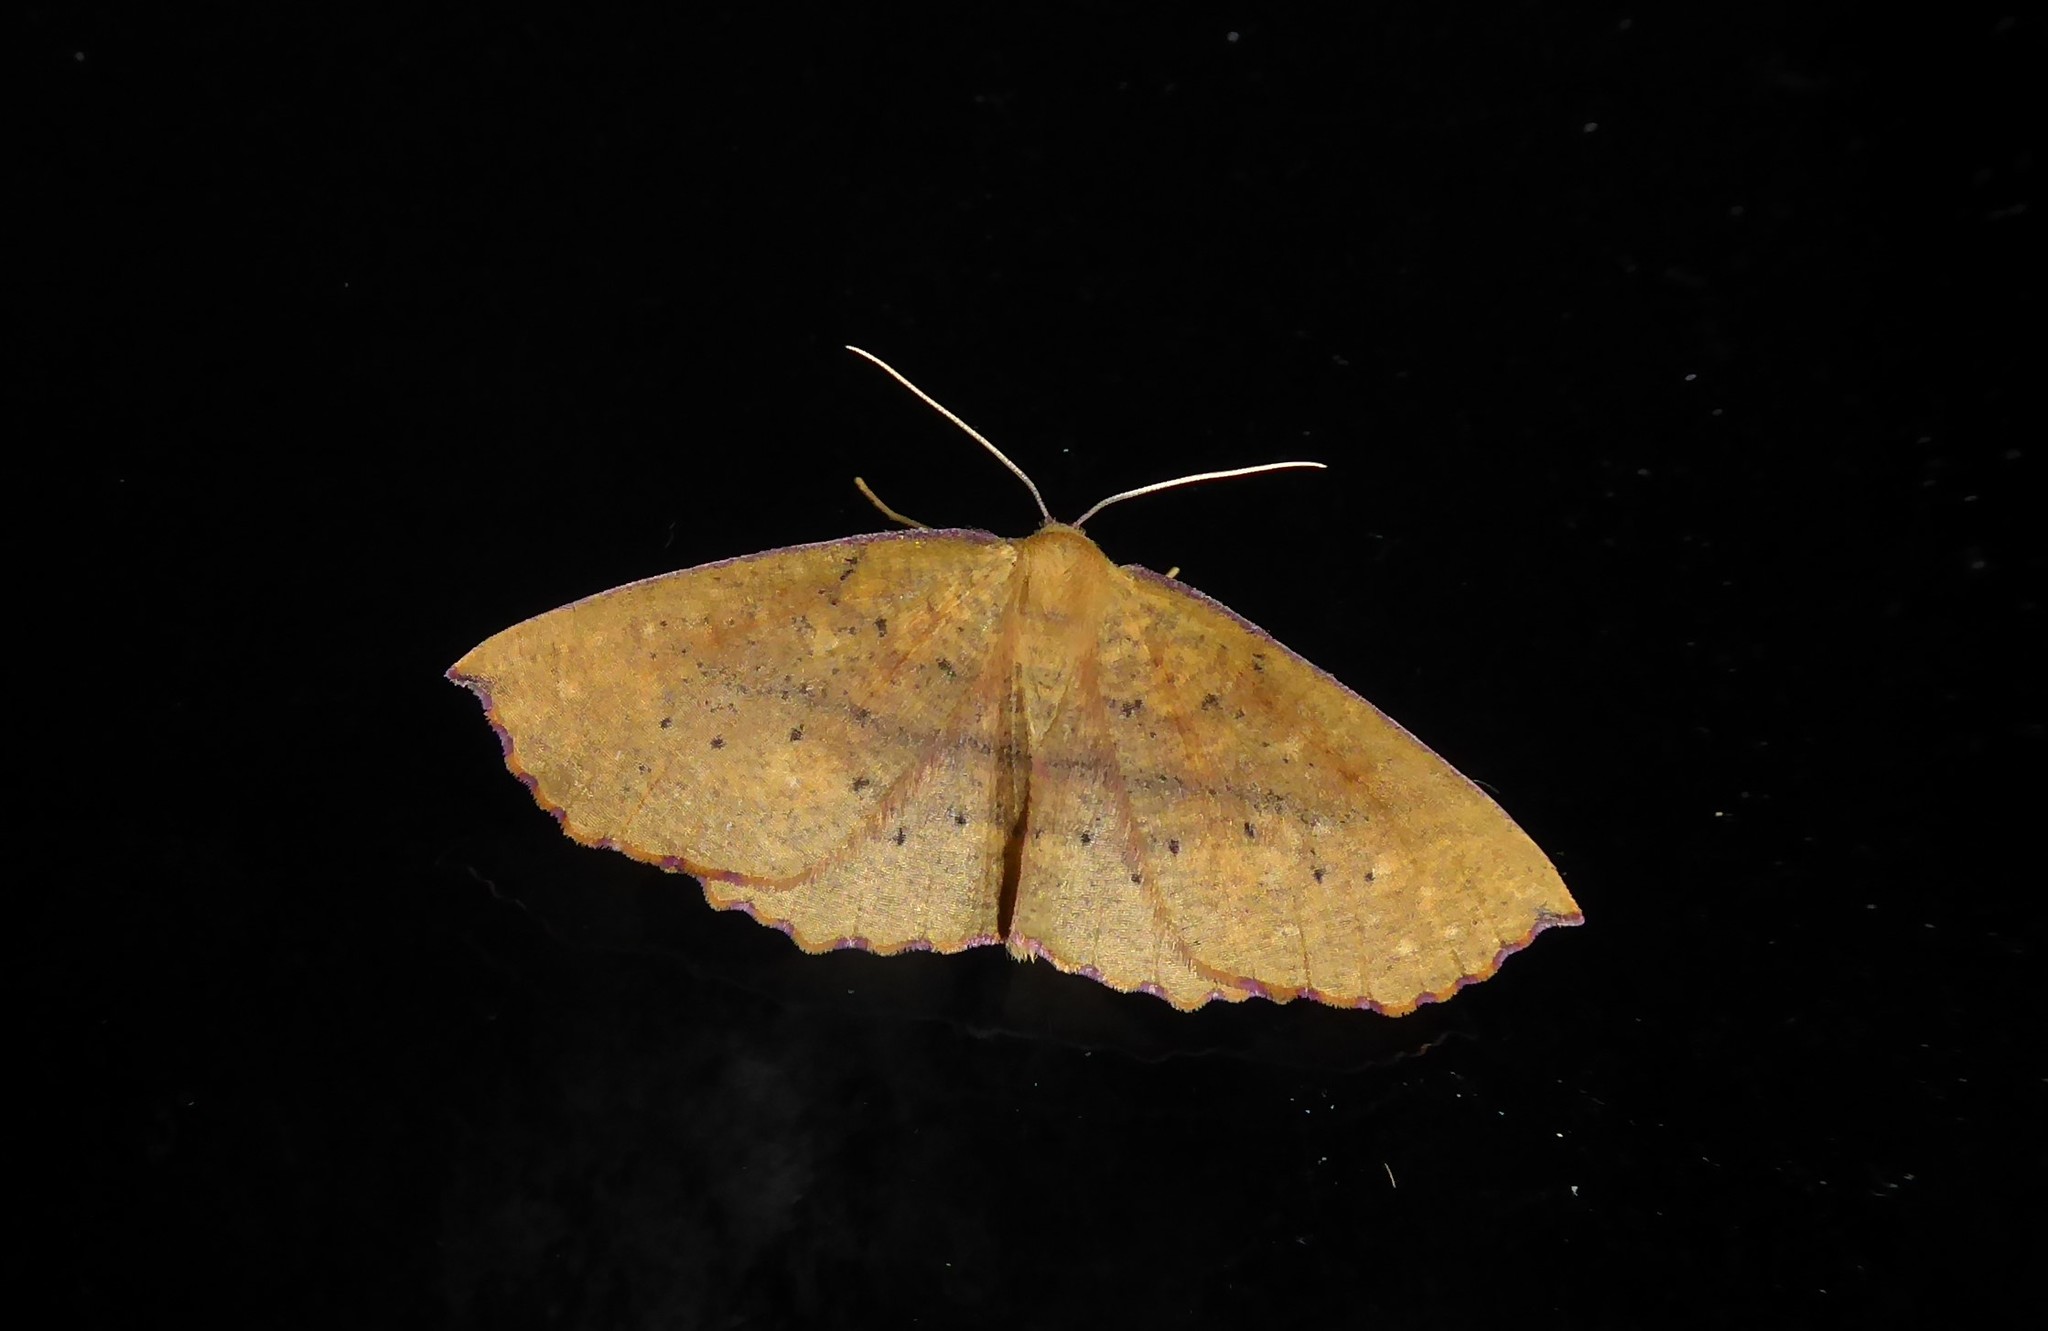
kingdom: Animalia
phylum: Arthropoda
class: Insecta
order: Lepidoptera
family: Geometridae
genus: Xyridacma
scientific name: Xyridacma ustaria
